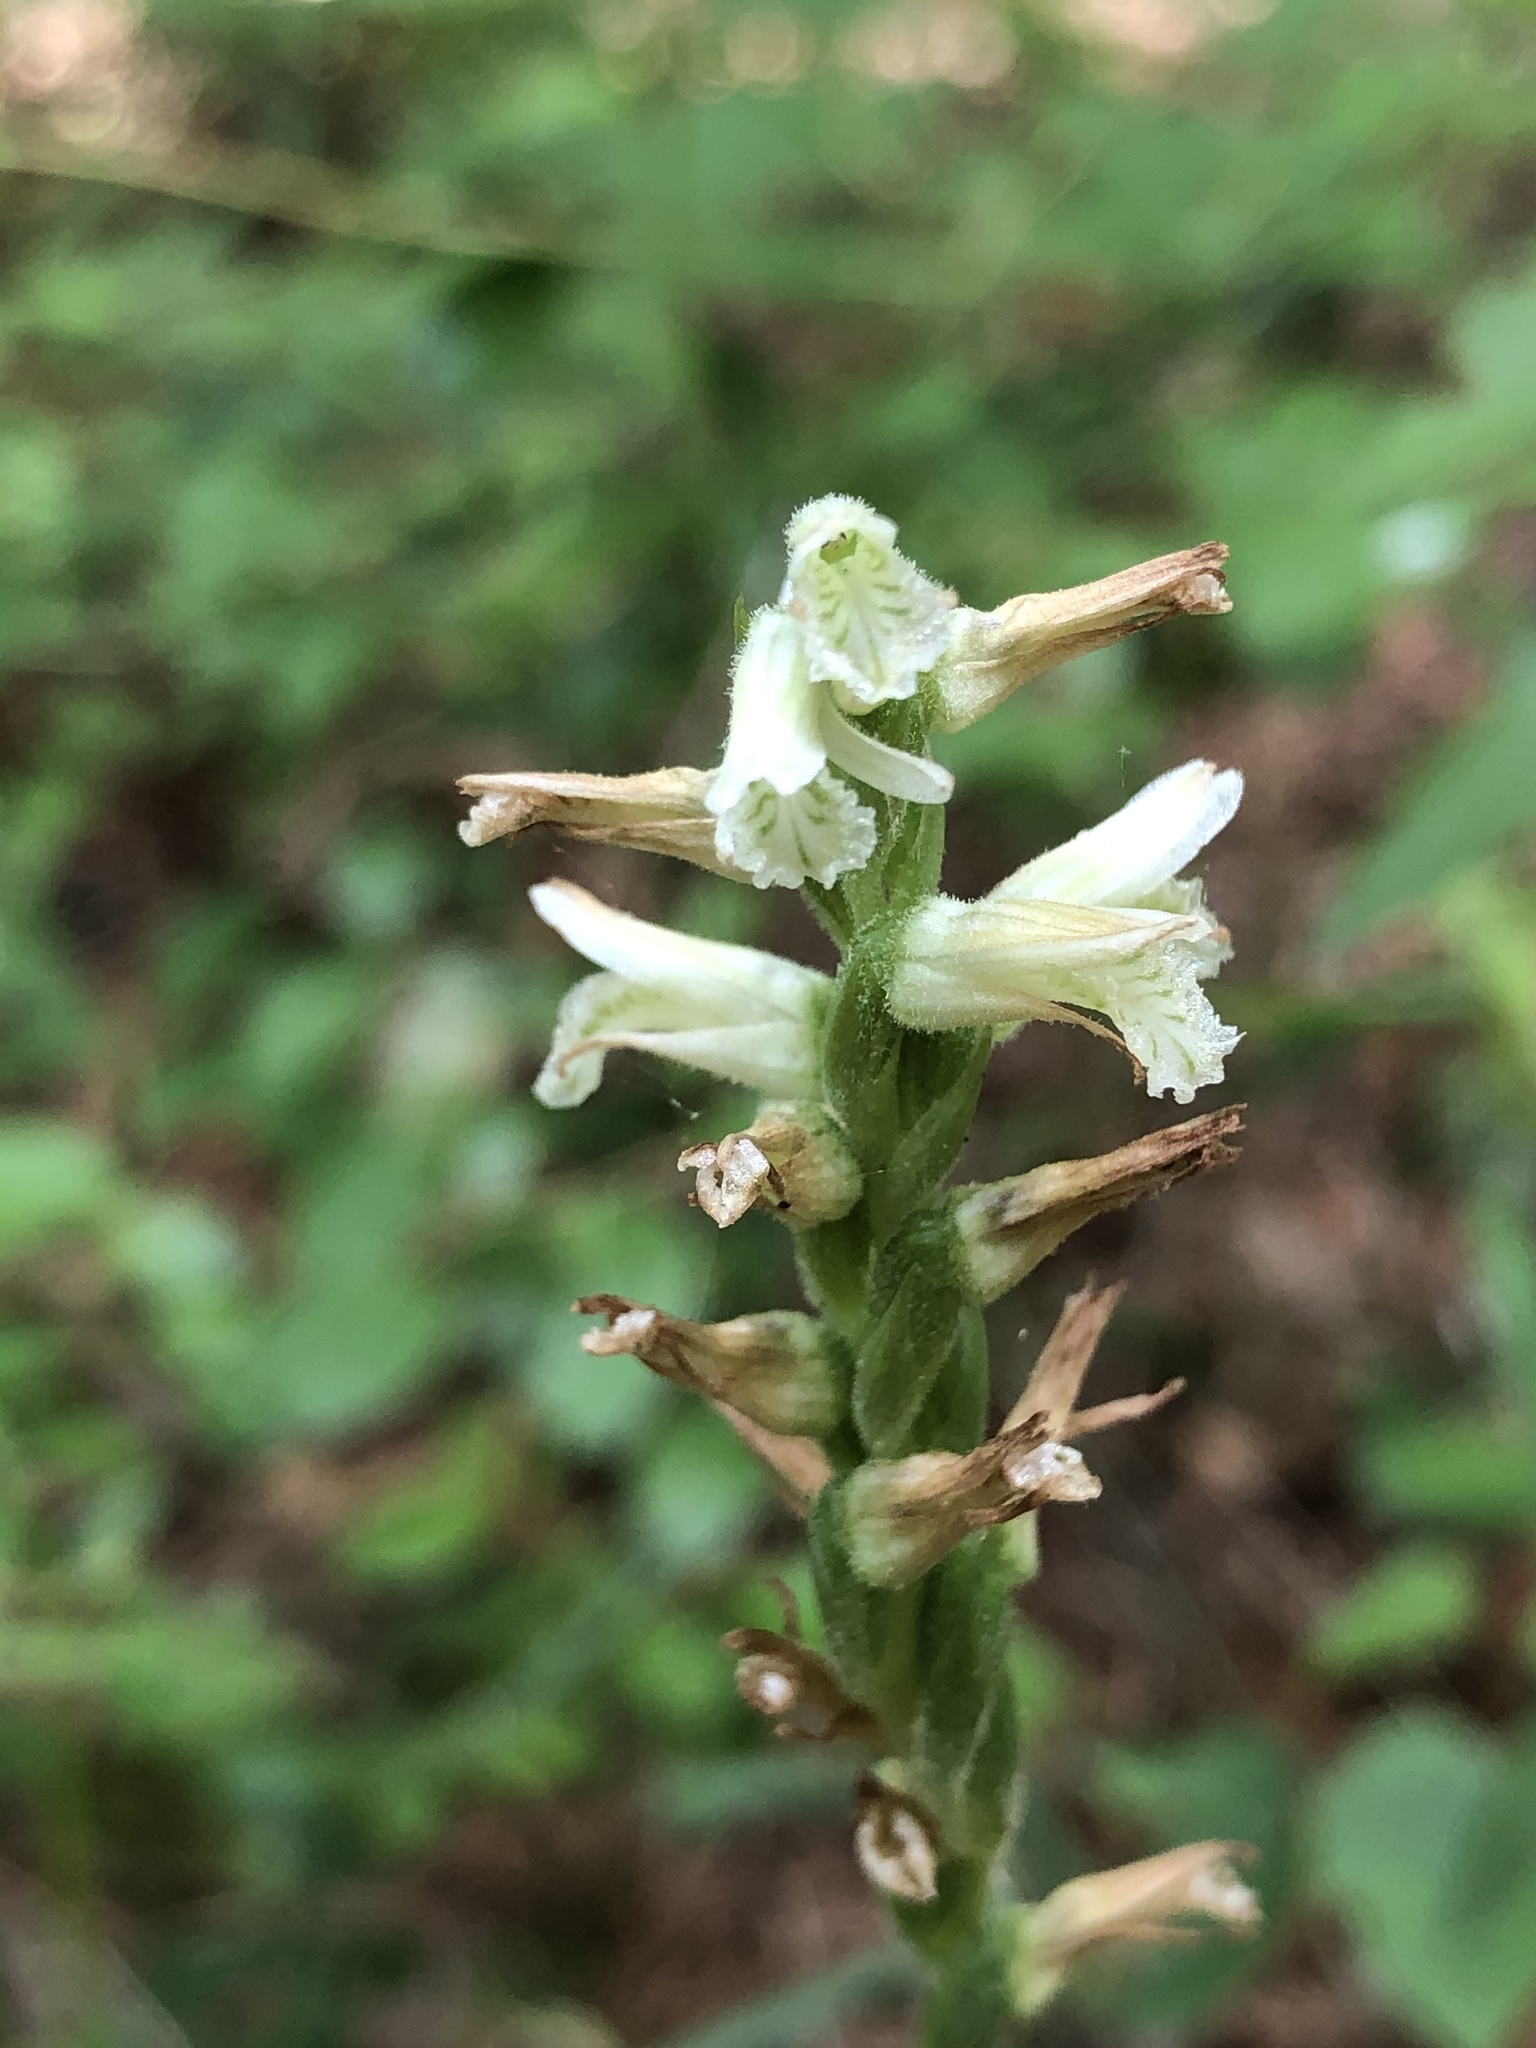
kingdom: Plantae
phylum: Tracheophyta
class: Liliopsida
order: Asparagales
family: Orchidaceae
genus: Spiranthes
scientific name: Spiranthes sylvatica
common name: Woodland lady's tresses
